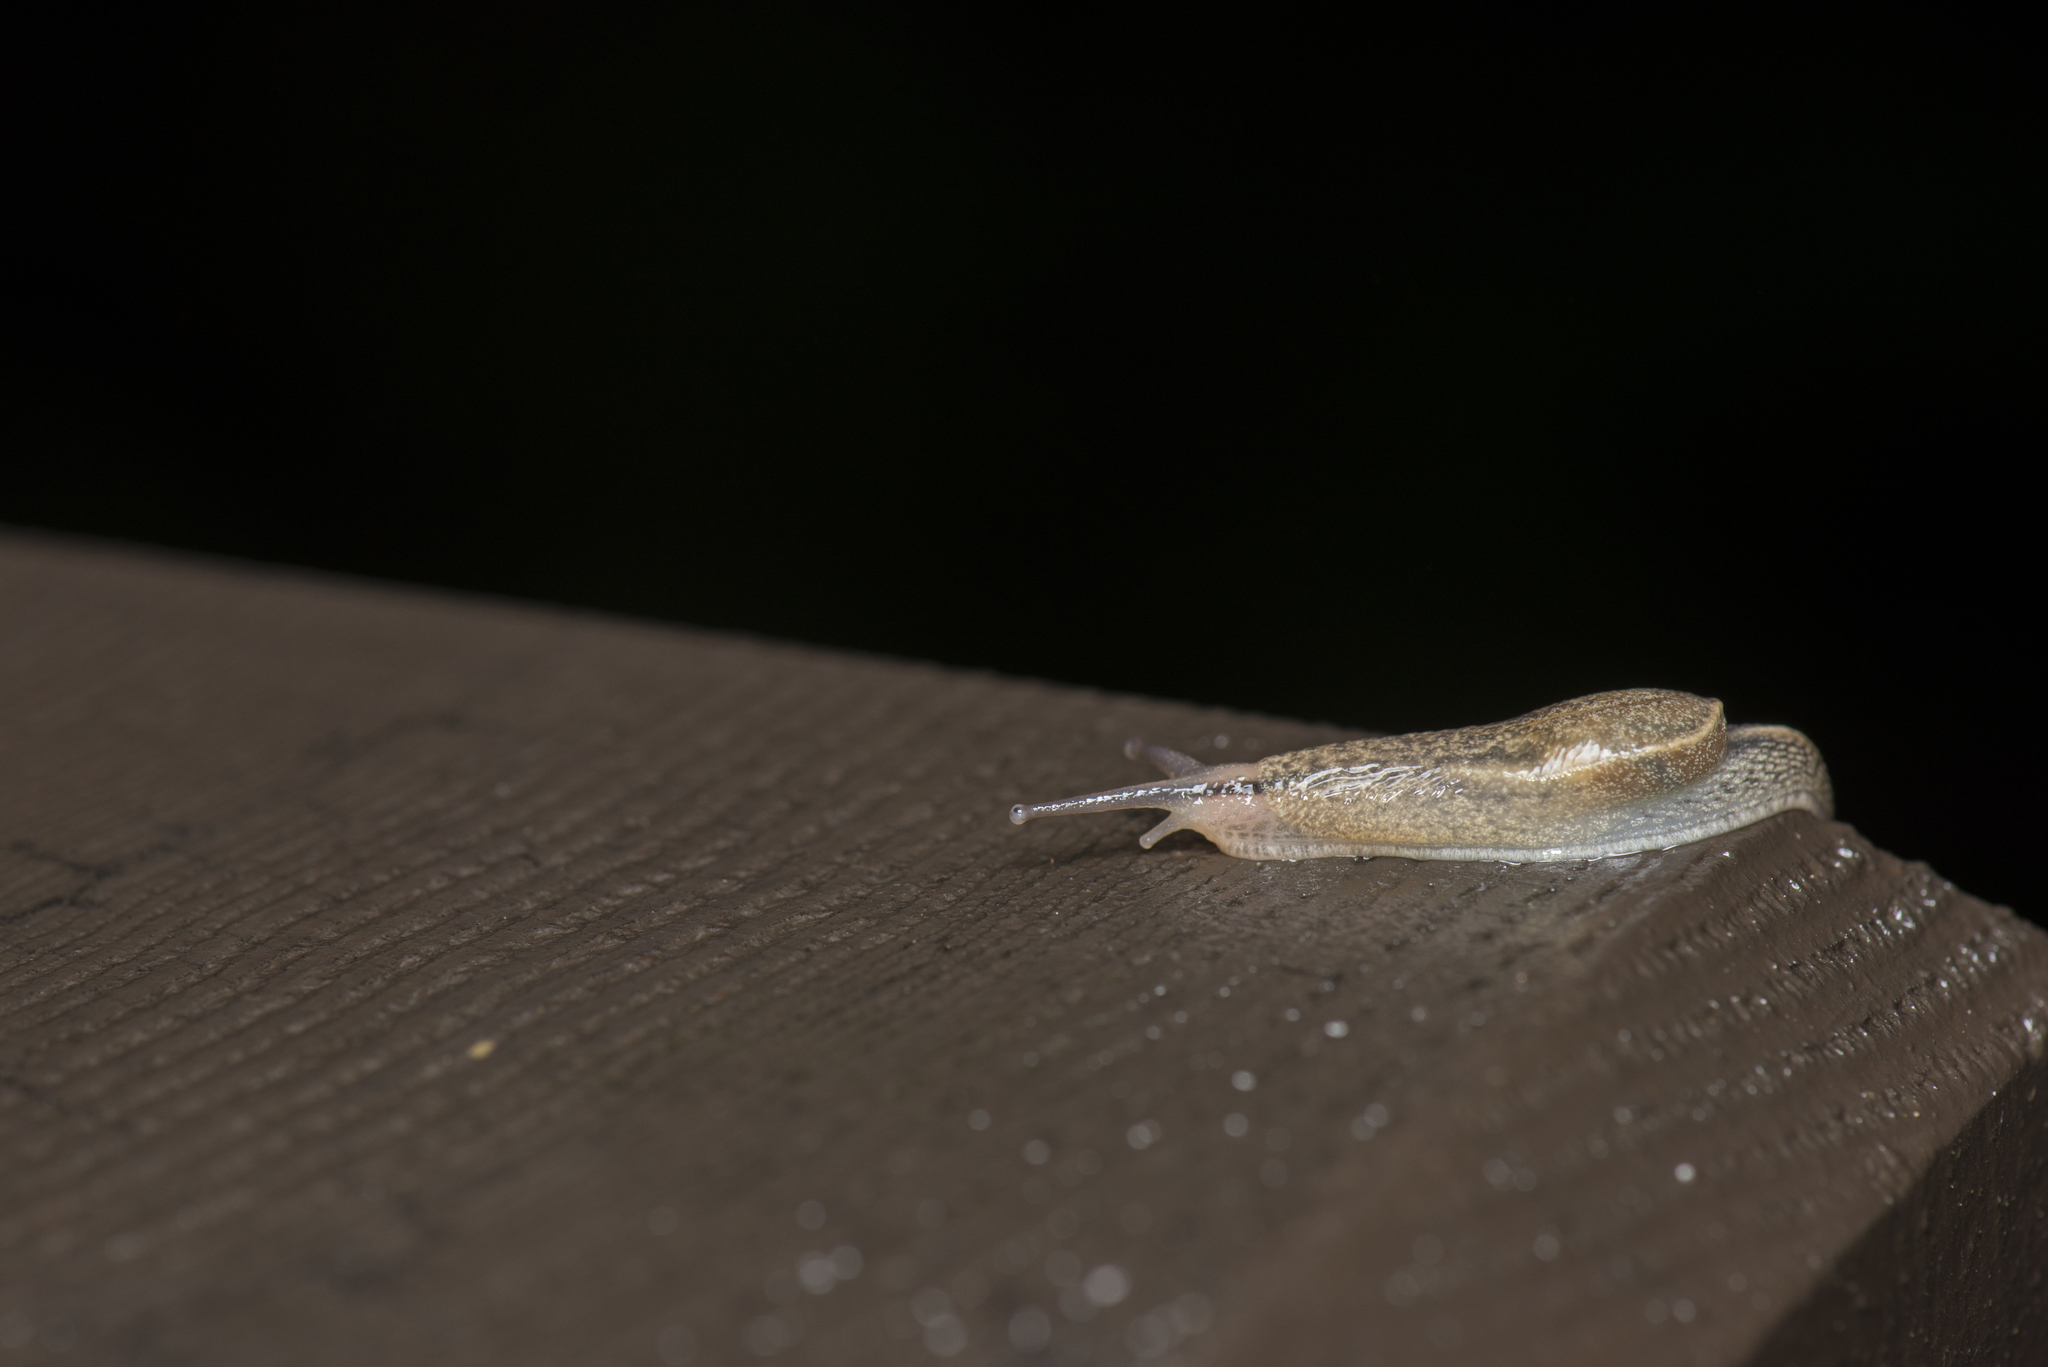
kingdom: Animalia
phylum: Mollusca
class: Gastropoda
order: Stylommatophora
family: Ariophantidae
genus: Parmarion
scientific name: Parmarion martensi
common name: Semi-slug
